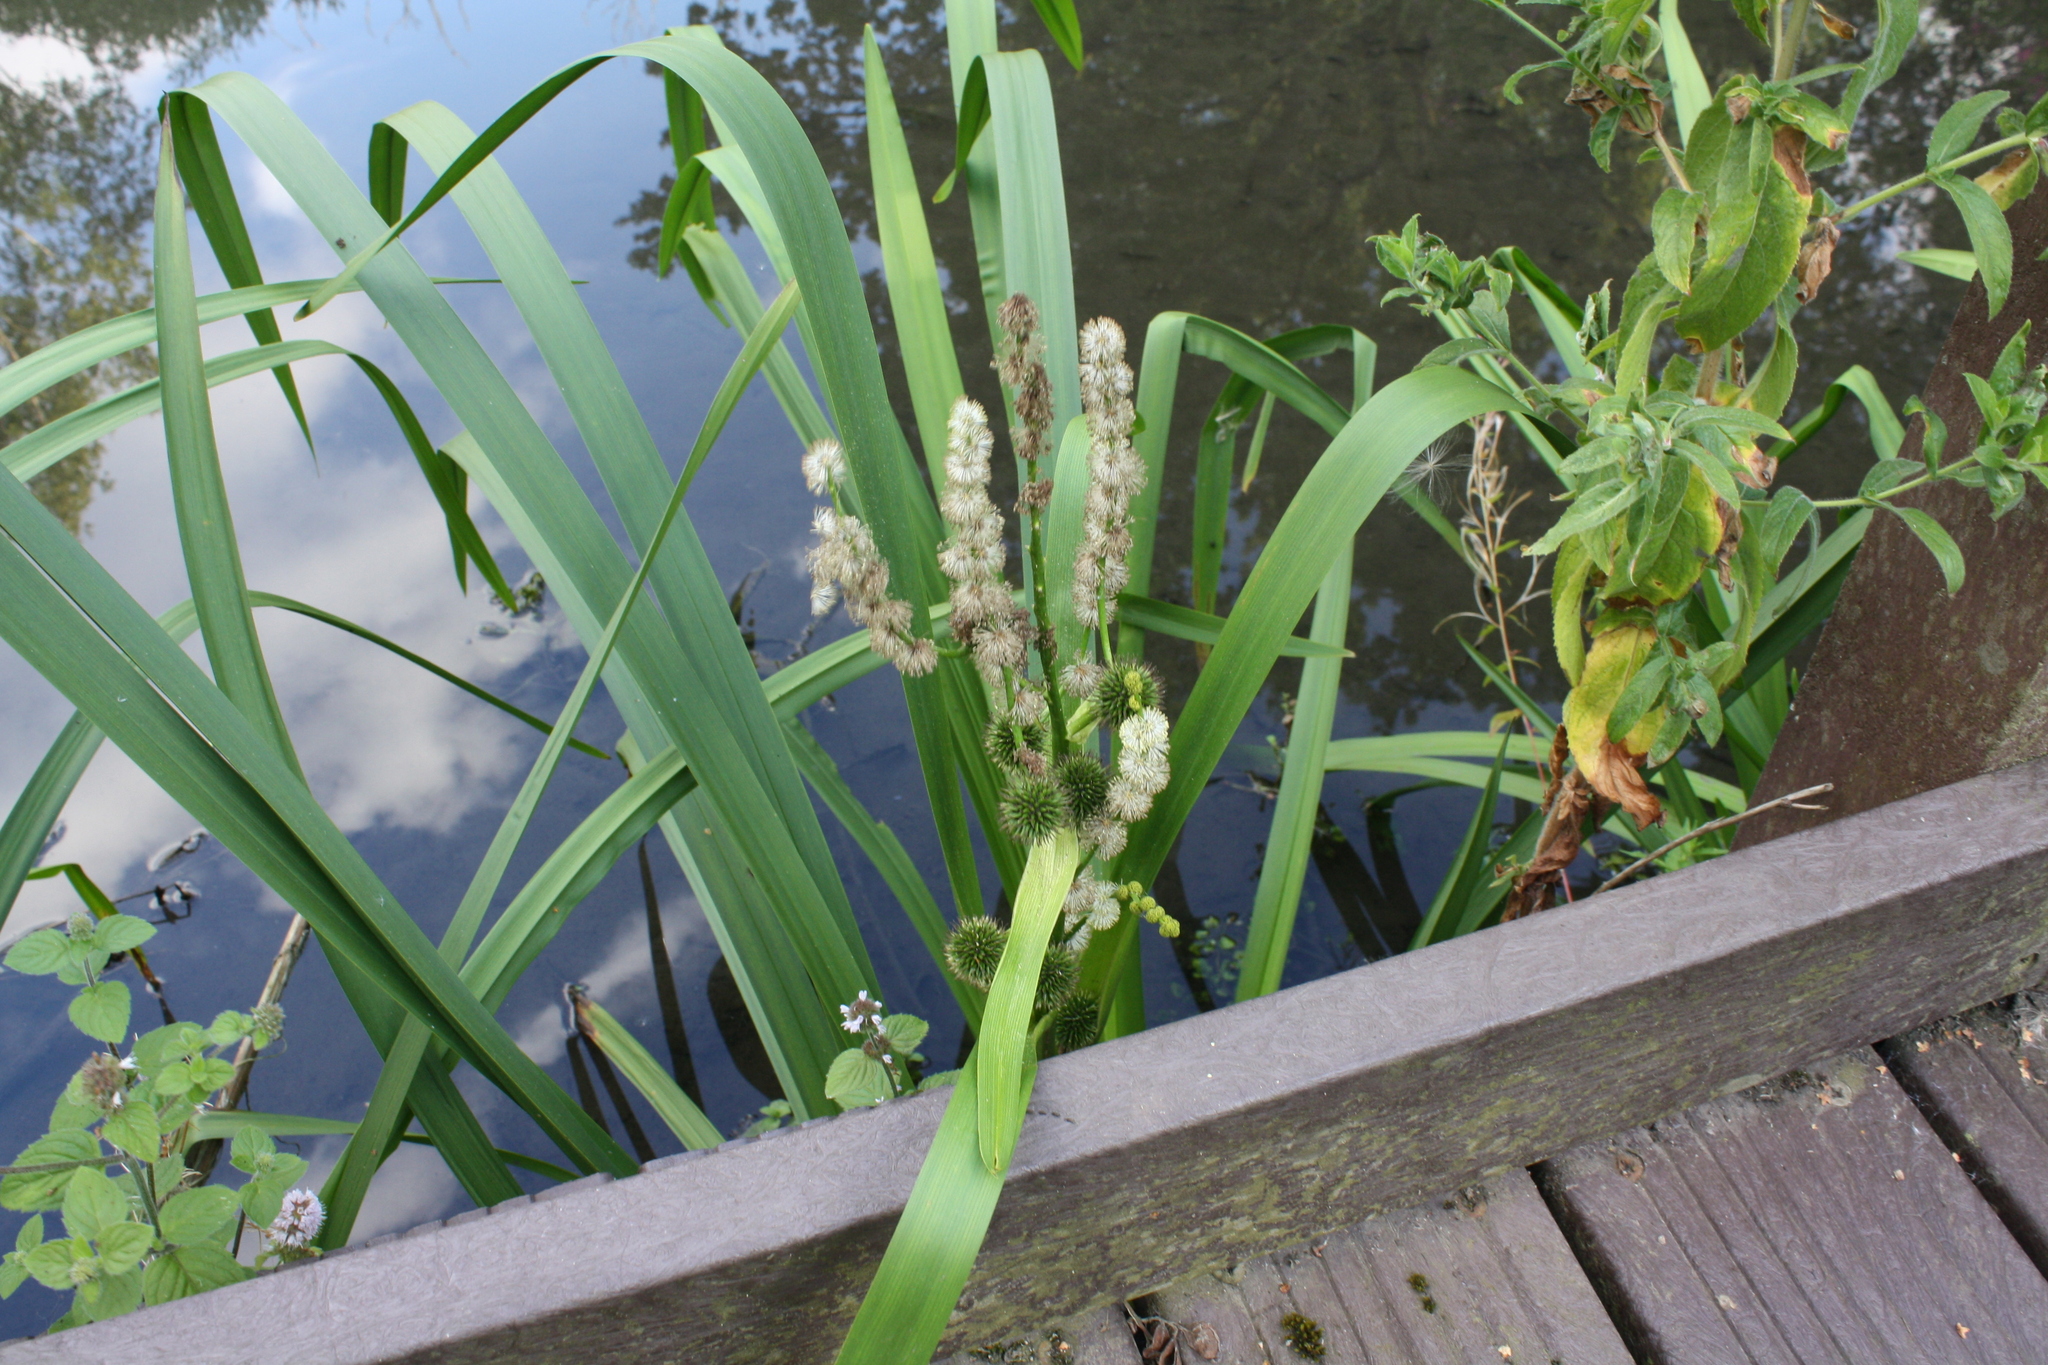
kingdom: Plantae
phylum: Tracheophyta
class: Liliopsida
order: Poales
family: Typhaceae
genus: Sparganium
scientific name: Sparganium erectum
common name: Branched bur-reed
